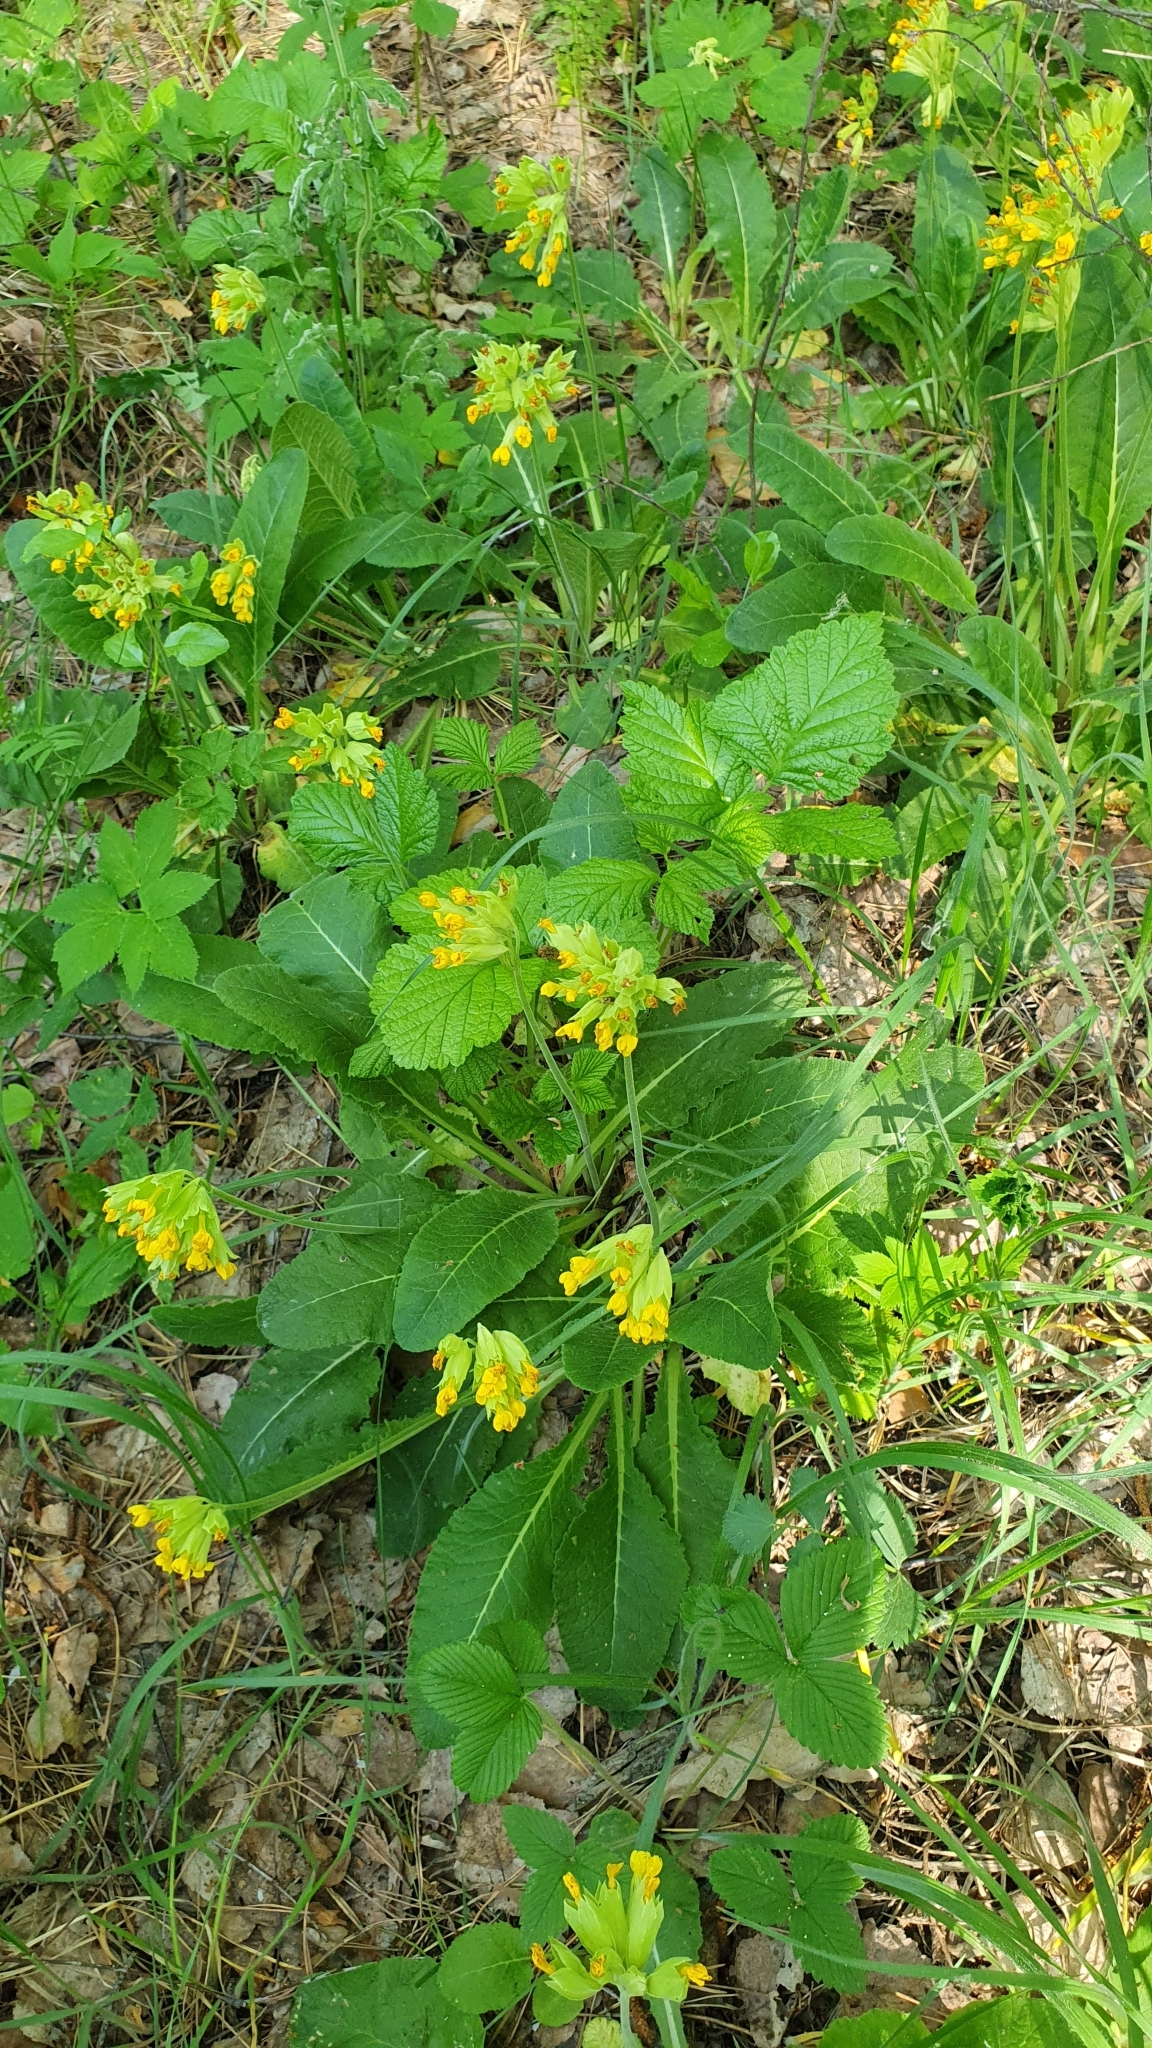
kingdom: Plantae
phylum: Tracheophyta
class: Magnoliopsida
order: Ericales
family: Primulaceae
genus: Primula
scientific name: Primula veris
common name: Cowslip
